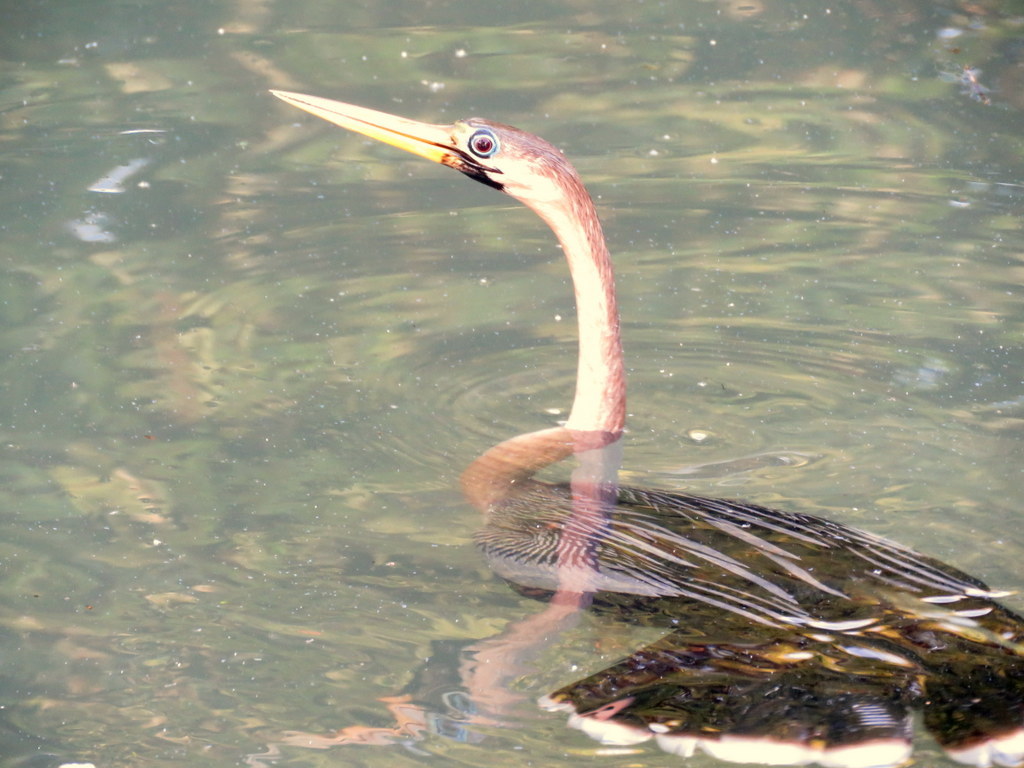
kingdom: Animalia
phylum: Chordata
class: Aves
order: Suliformes
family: Anhingidae
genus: Anhinga
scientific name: Anhinga anhinga
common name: Anhinga
